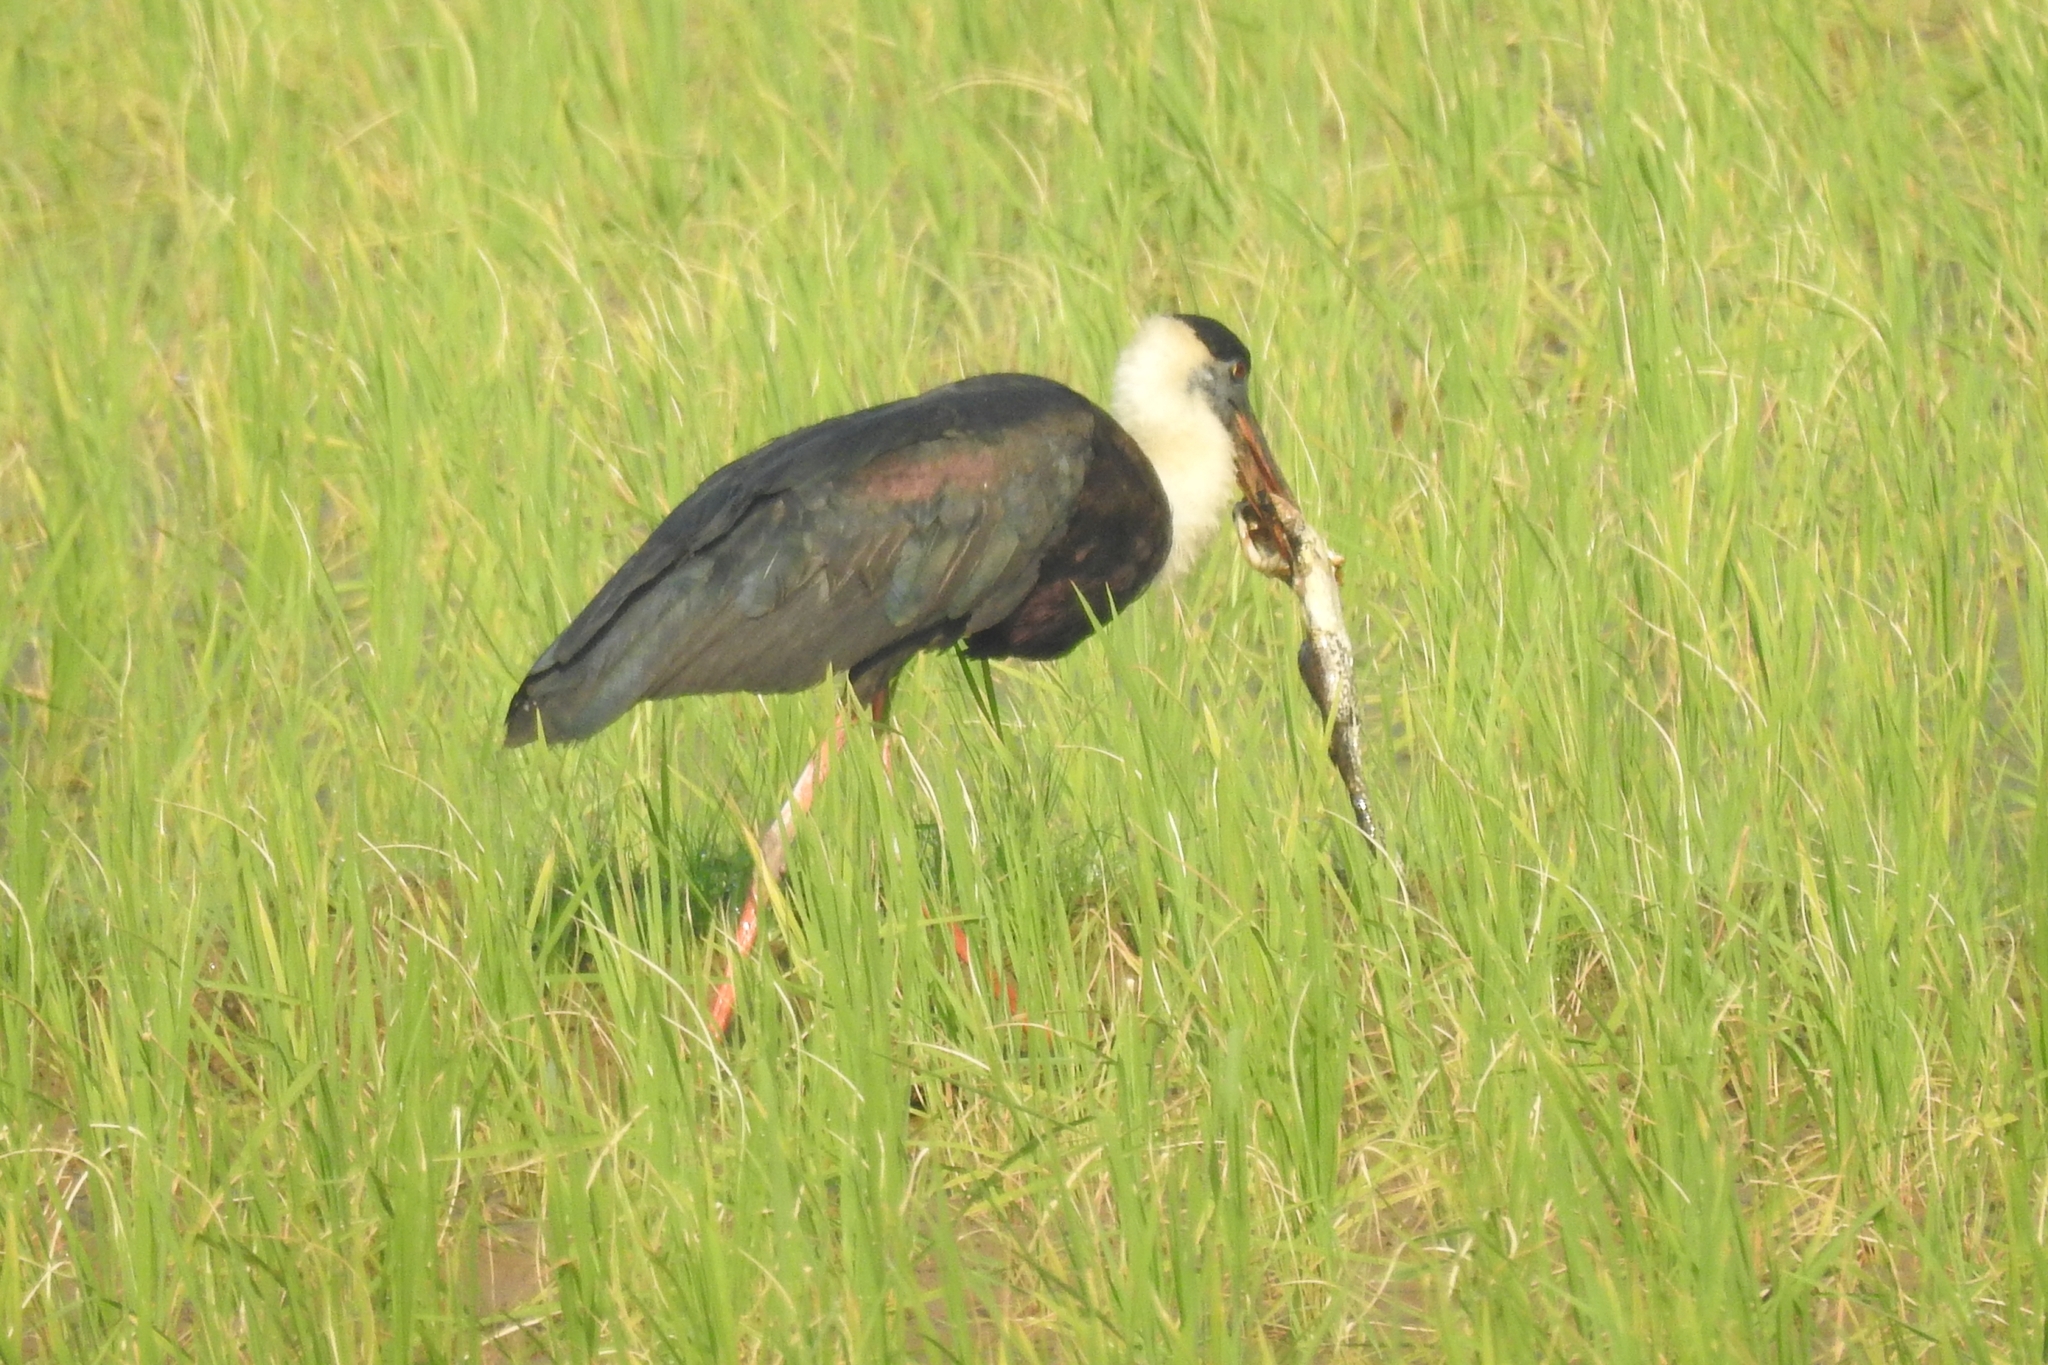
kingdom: Animalia
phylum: Chordata
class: Aves
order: Ciconiiformes
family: Ciconiidae
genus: Ciconia
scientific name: Ciconia episcopus
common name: Woolly-necked stork
